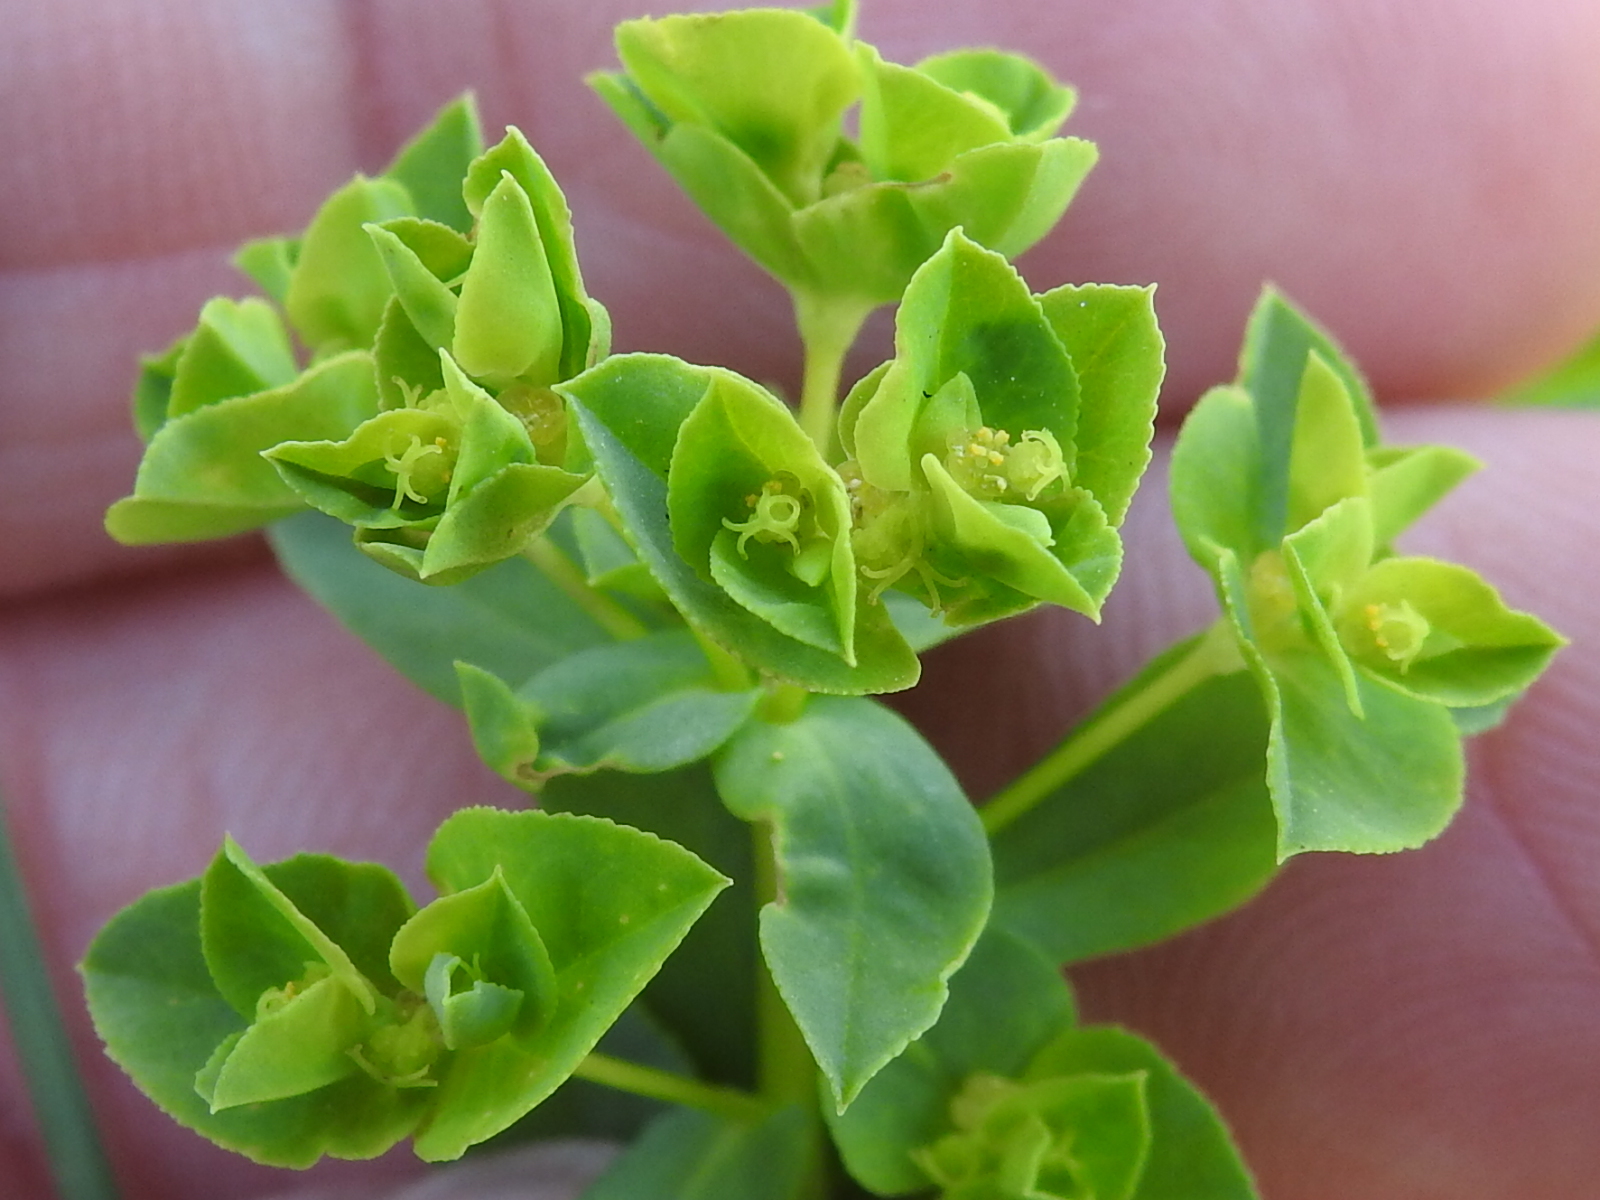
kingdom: Plantae
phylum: Tracheophyta
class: Magnoliopsida
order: Malpighiales
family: Euphorbiaceae
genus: Euphorbia
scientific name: Euphorbia spathulata
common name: Blunt spurge
